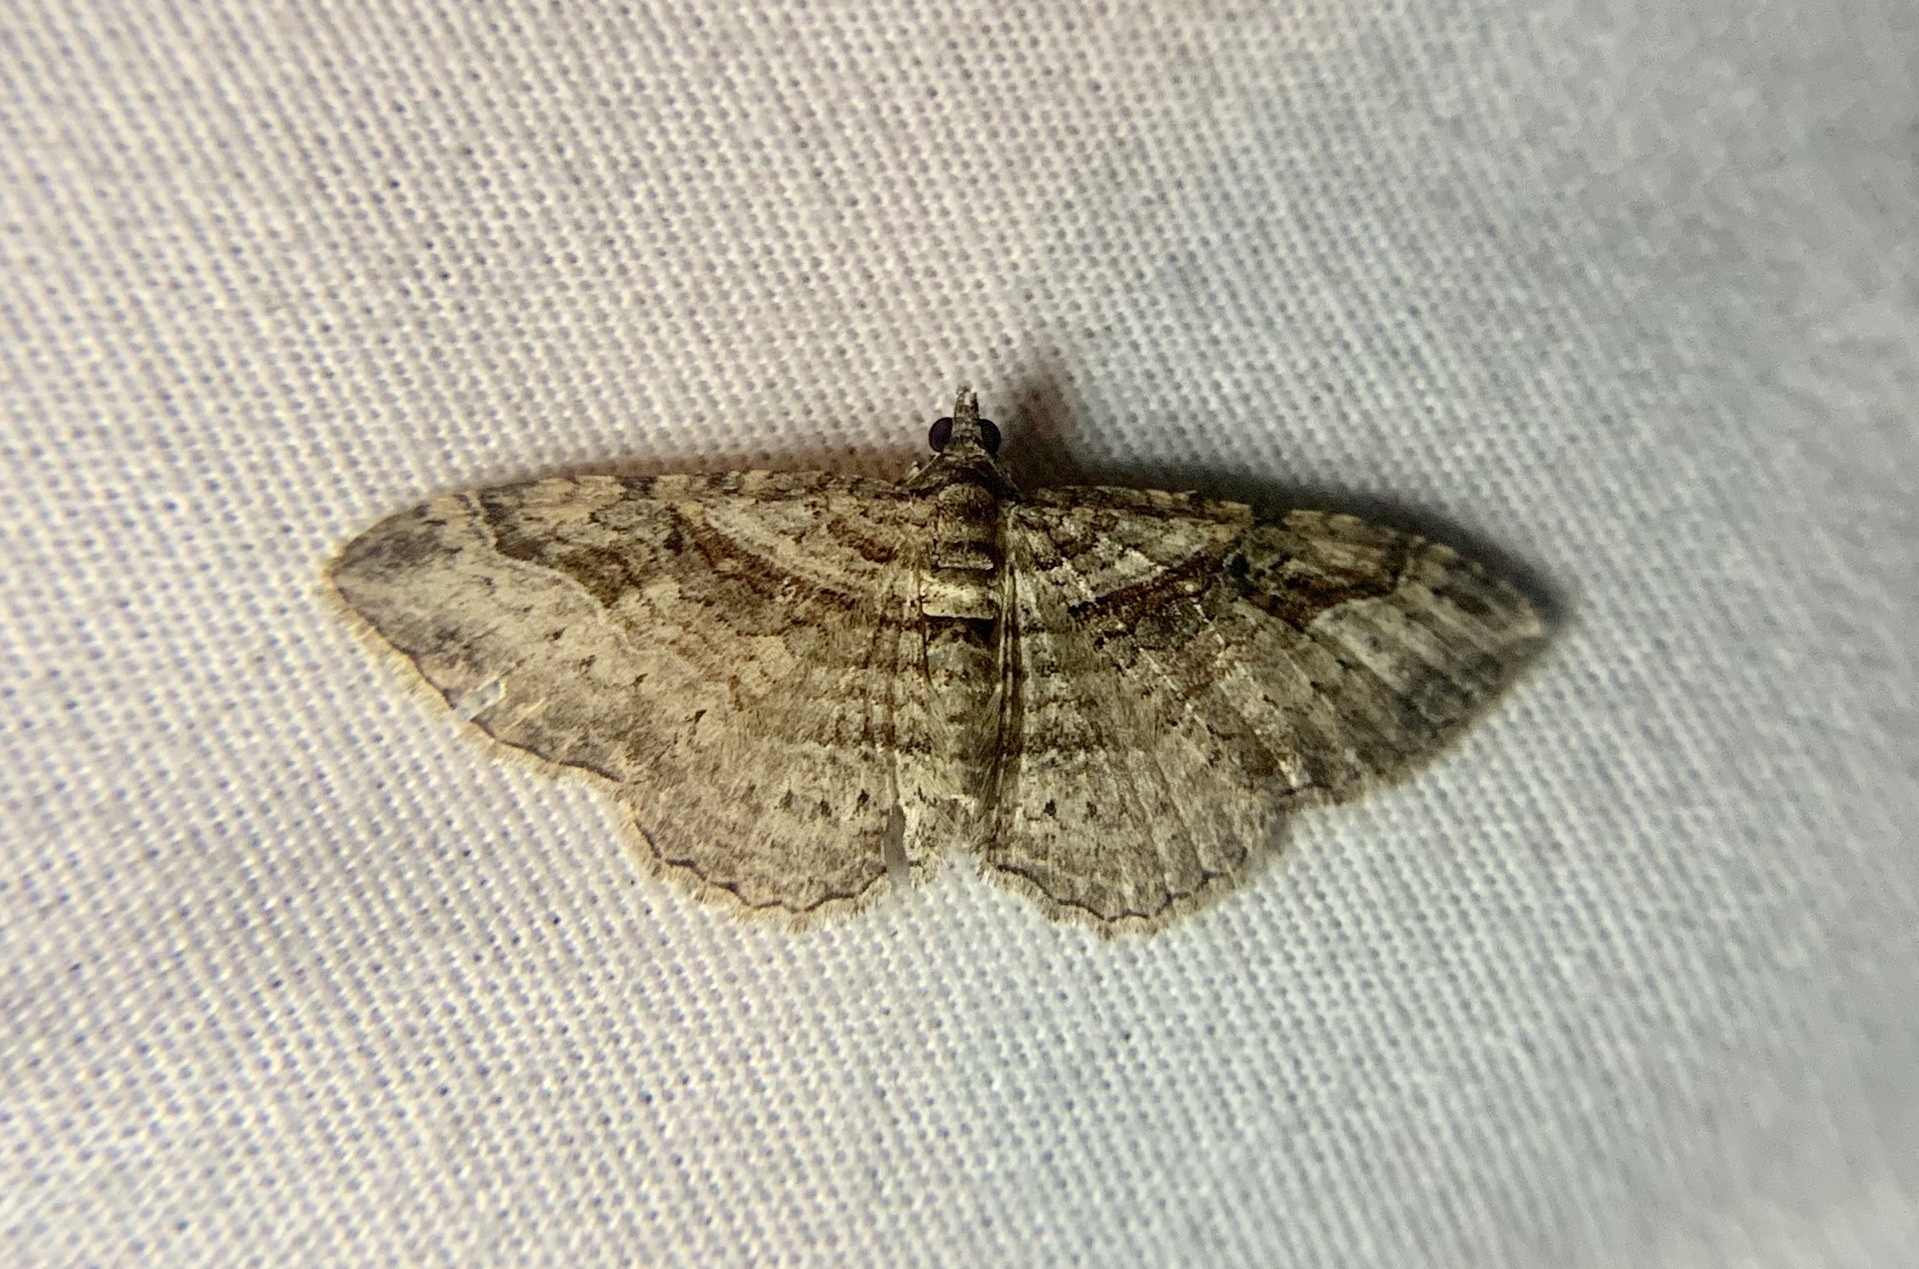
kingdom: Animalia
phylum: Arthropoda
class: Insecta
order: Lepidoptera
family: Geometridae
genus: Costaconvexa
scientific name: Costaconvexa centrostrigaria
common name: Bent-line carpet
